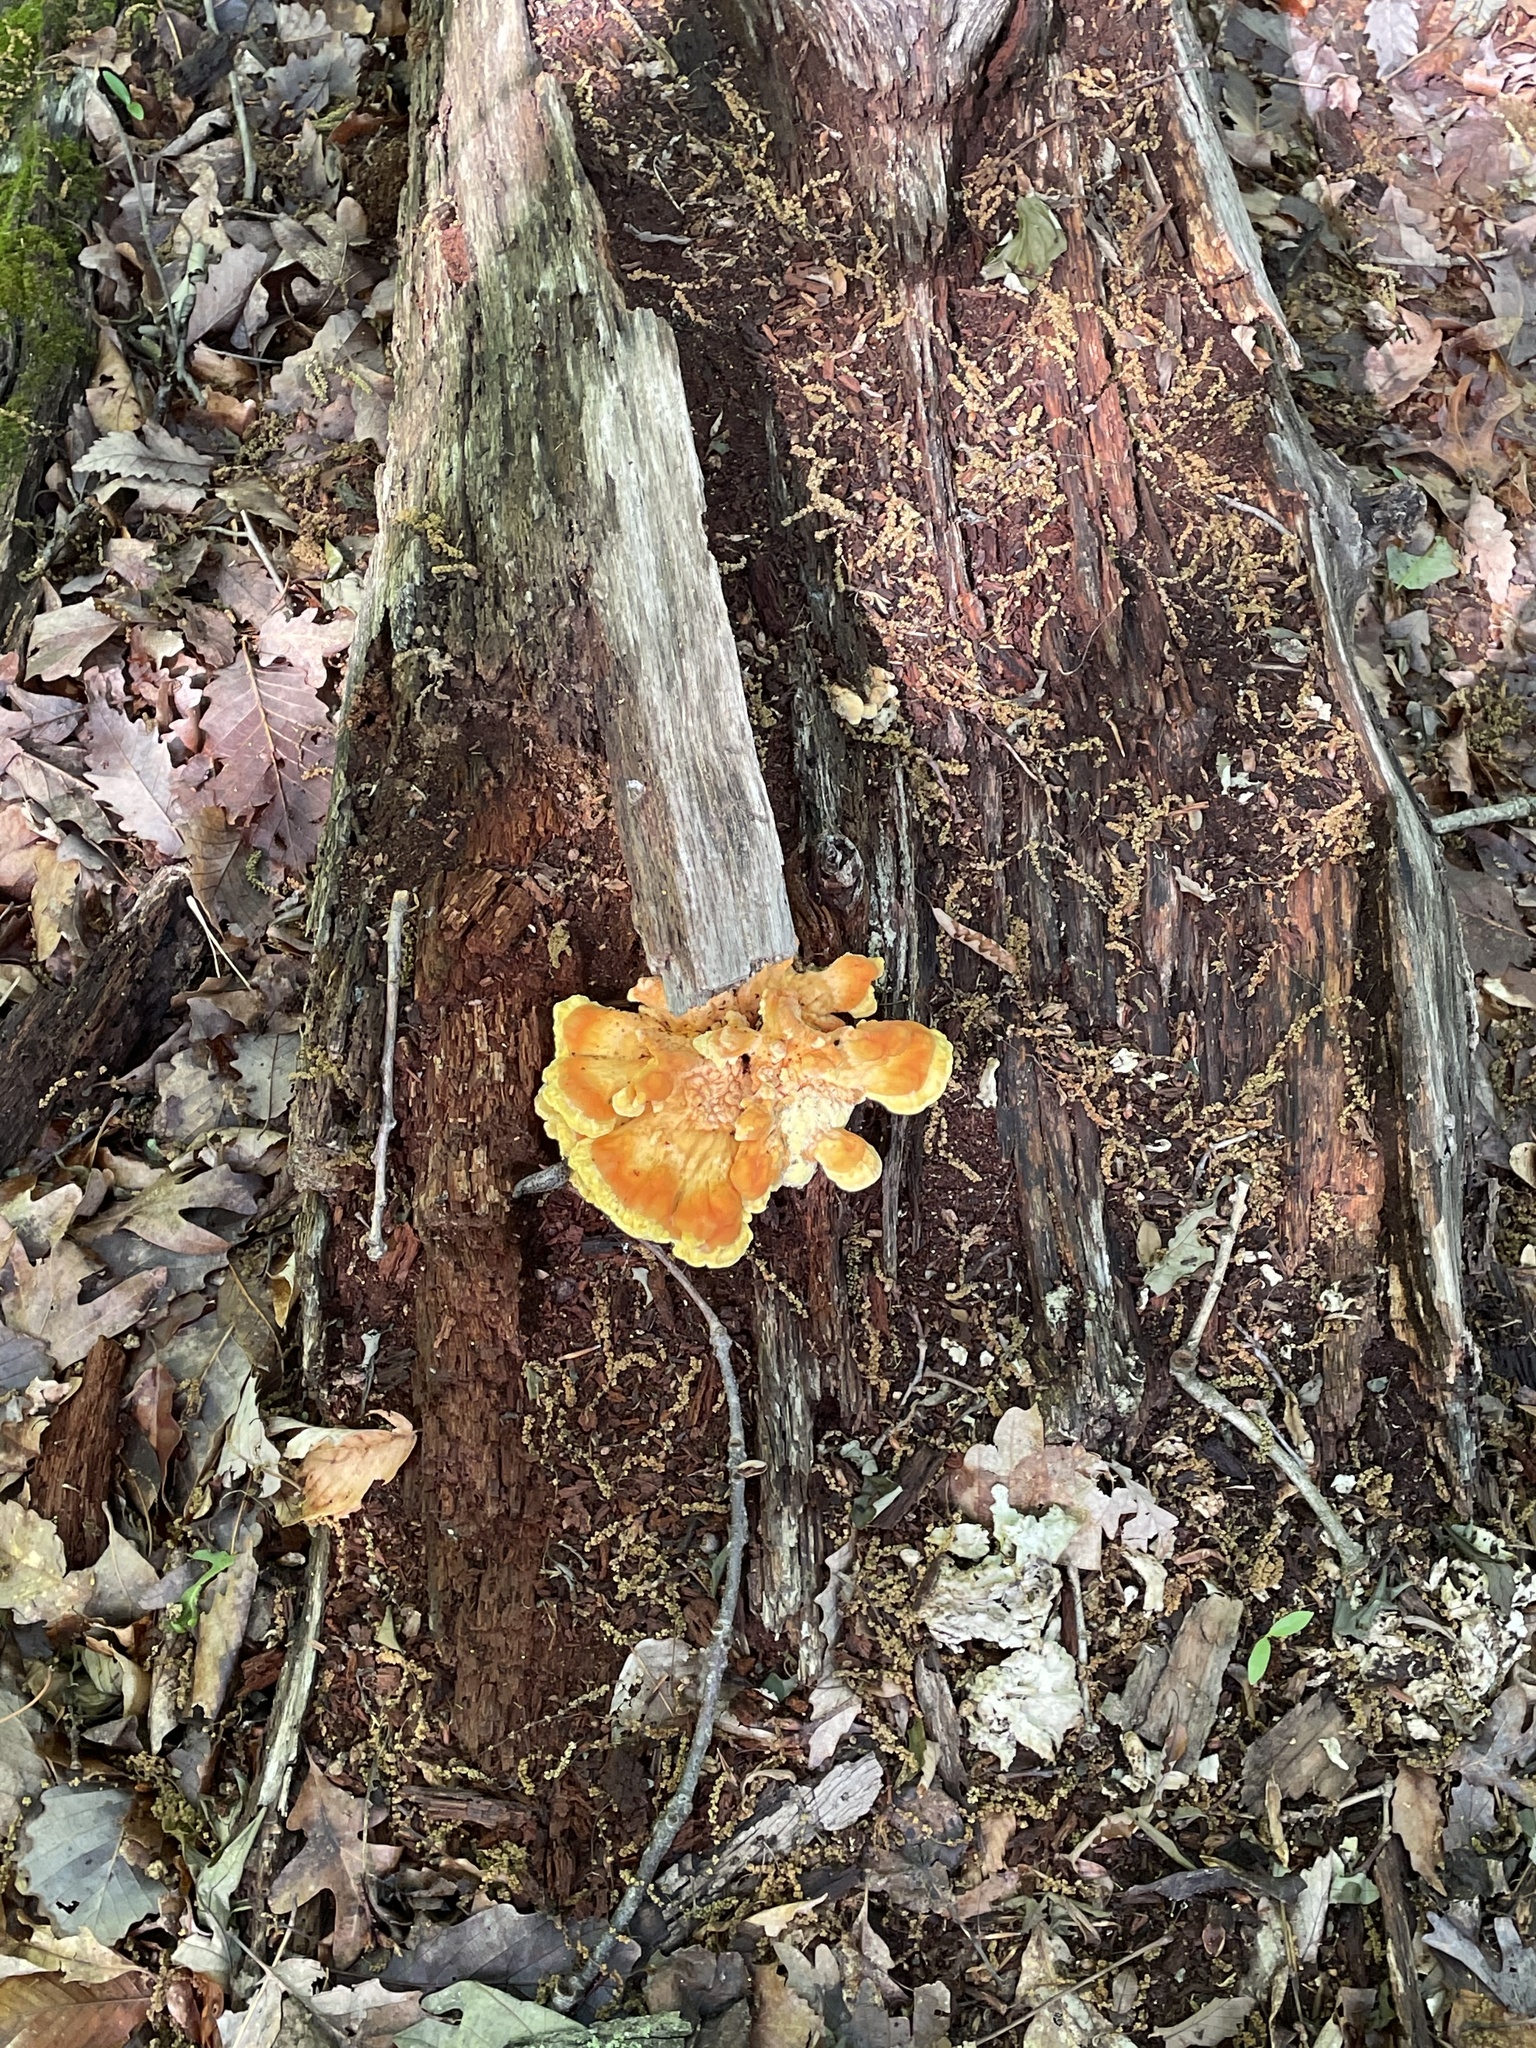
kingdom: Fungi
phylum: Basidiomycota
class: Agaricomycetes
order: Polyporales
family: Laetiporaceae
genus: Laetiporus
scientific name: Laetiporus sulphureus
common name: Chicken of the woods
